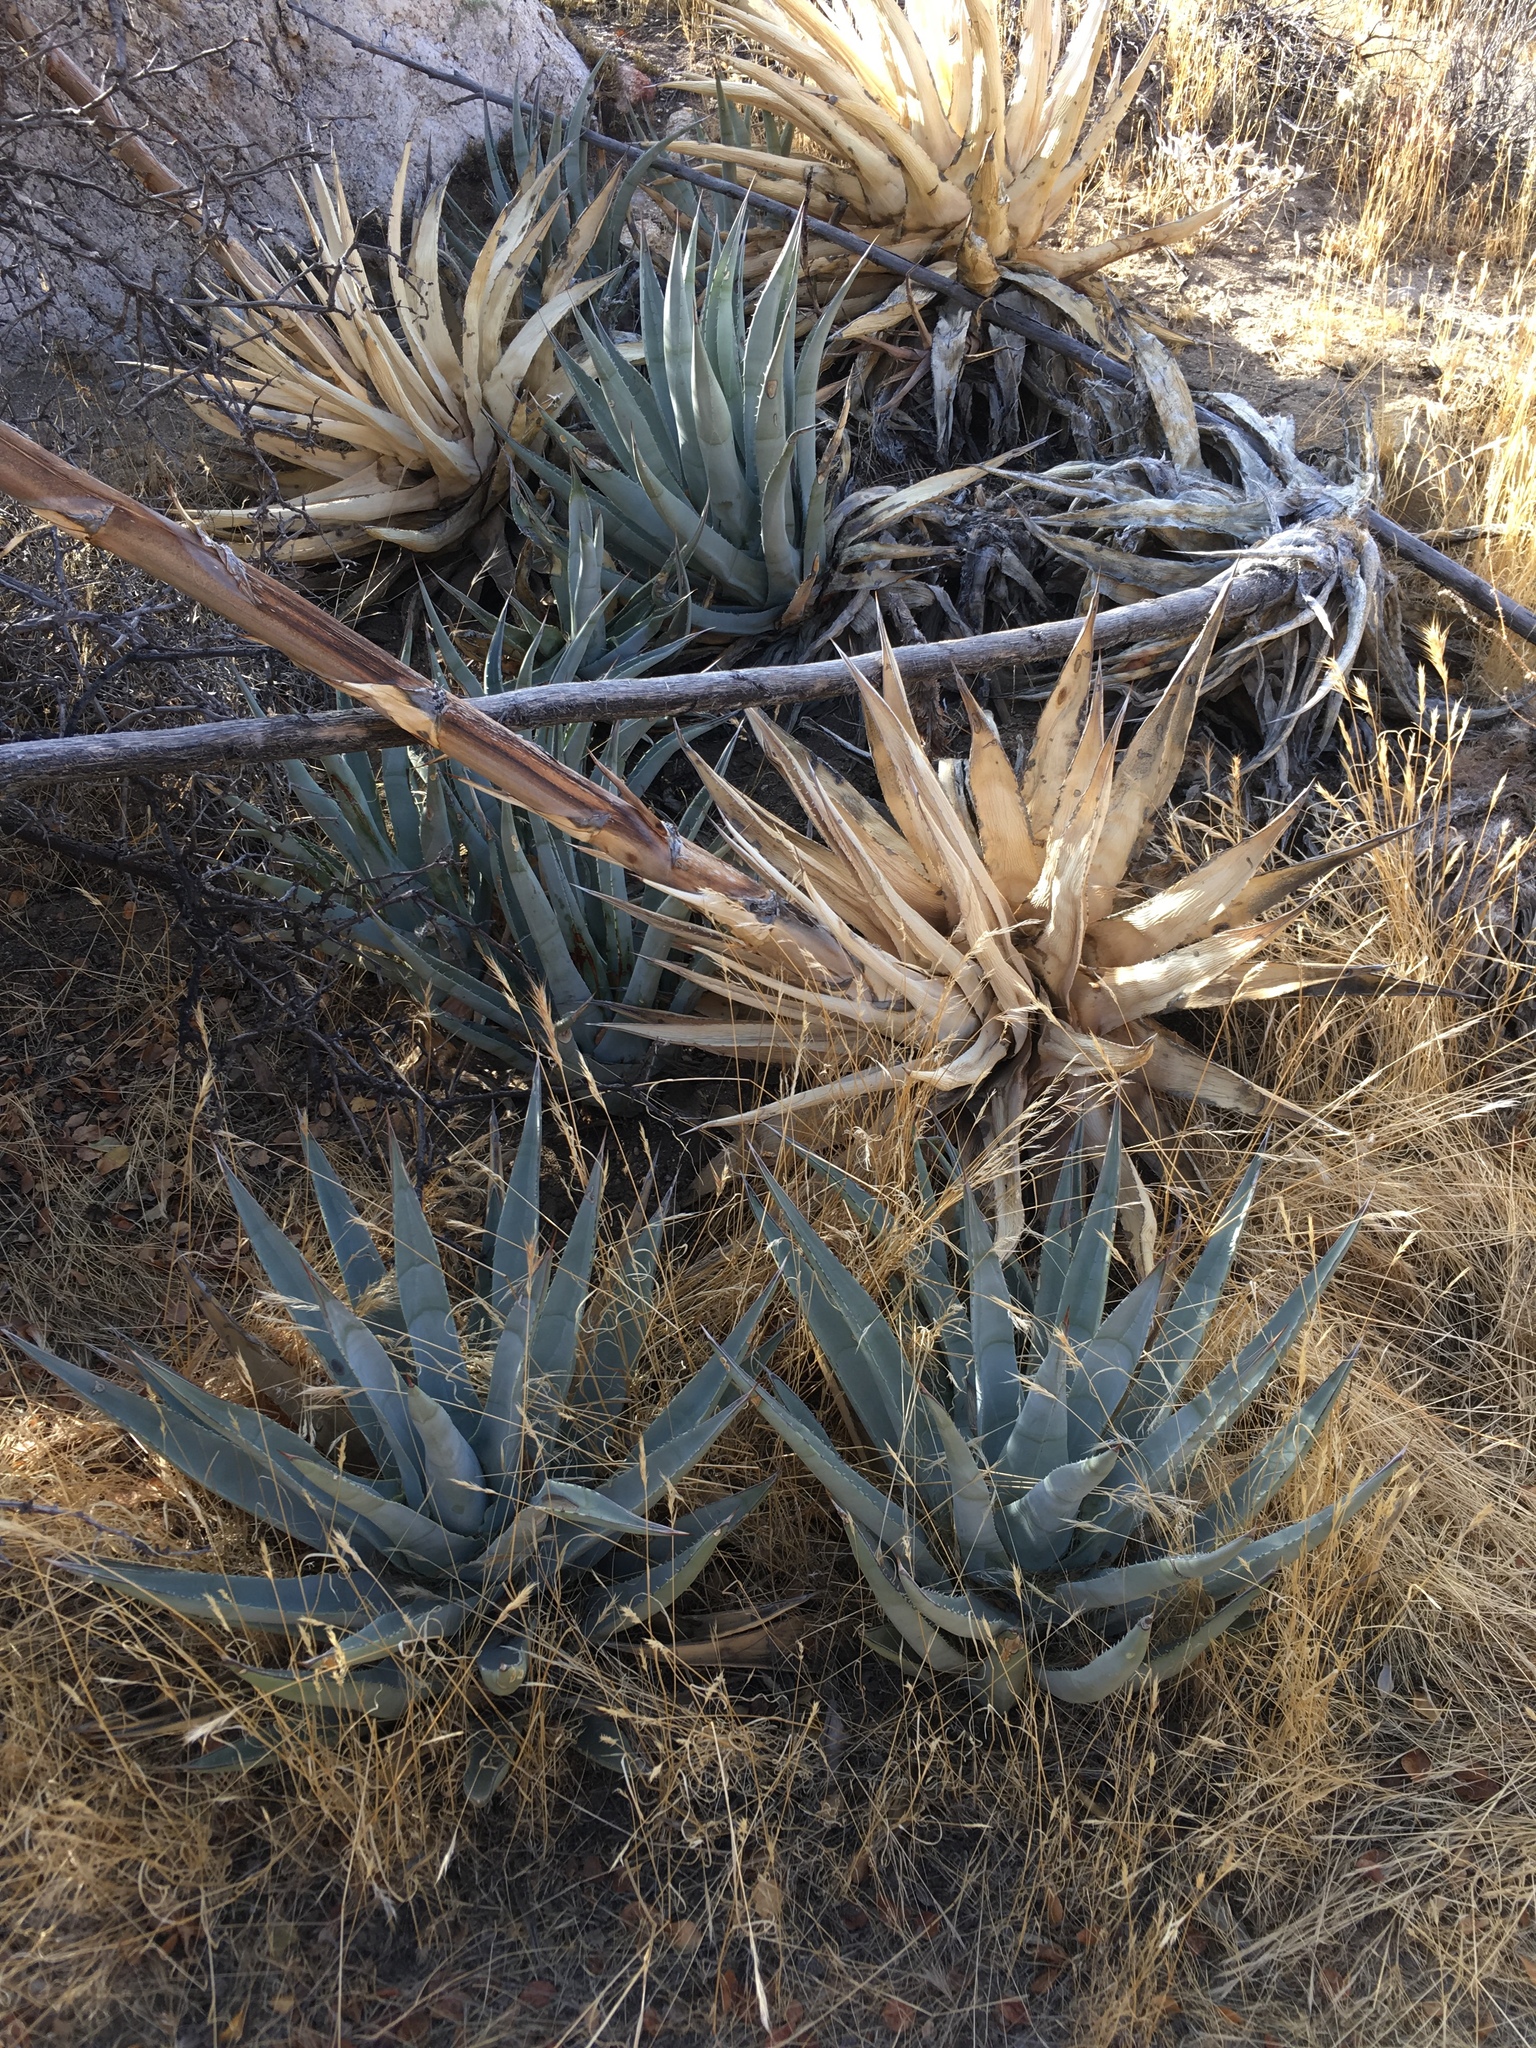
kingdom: Plantae
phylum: Tracheophyta
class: Liliopsida
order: Asparagales
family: Asparagaceae
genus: Agave
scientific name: Agave deserti
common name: Desert agave
